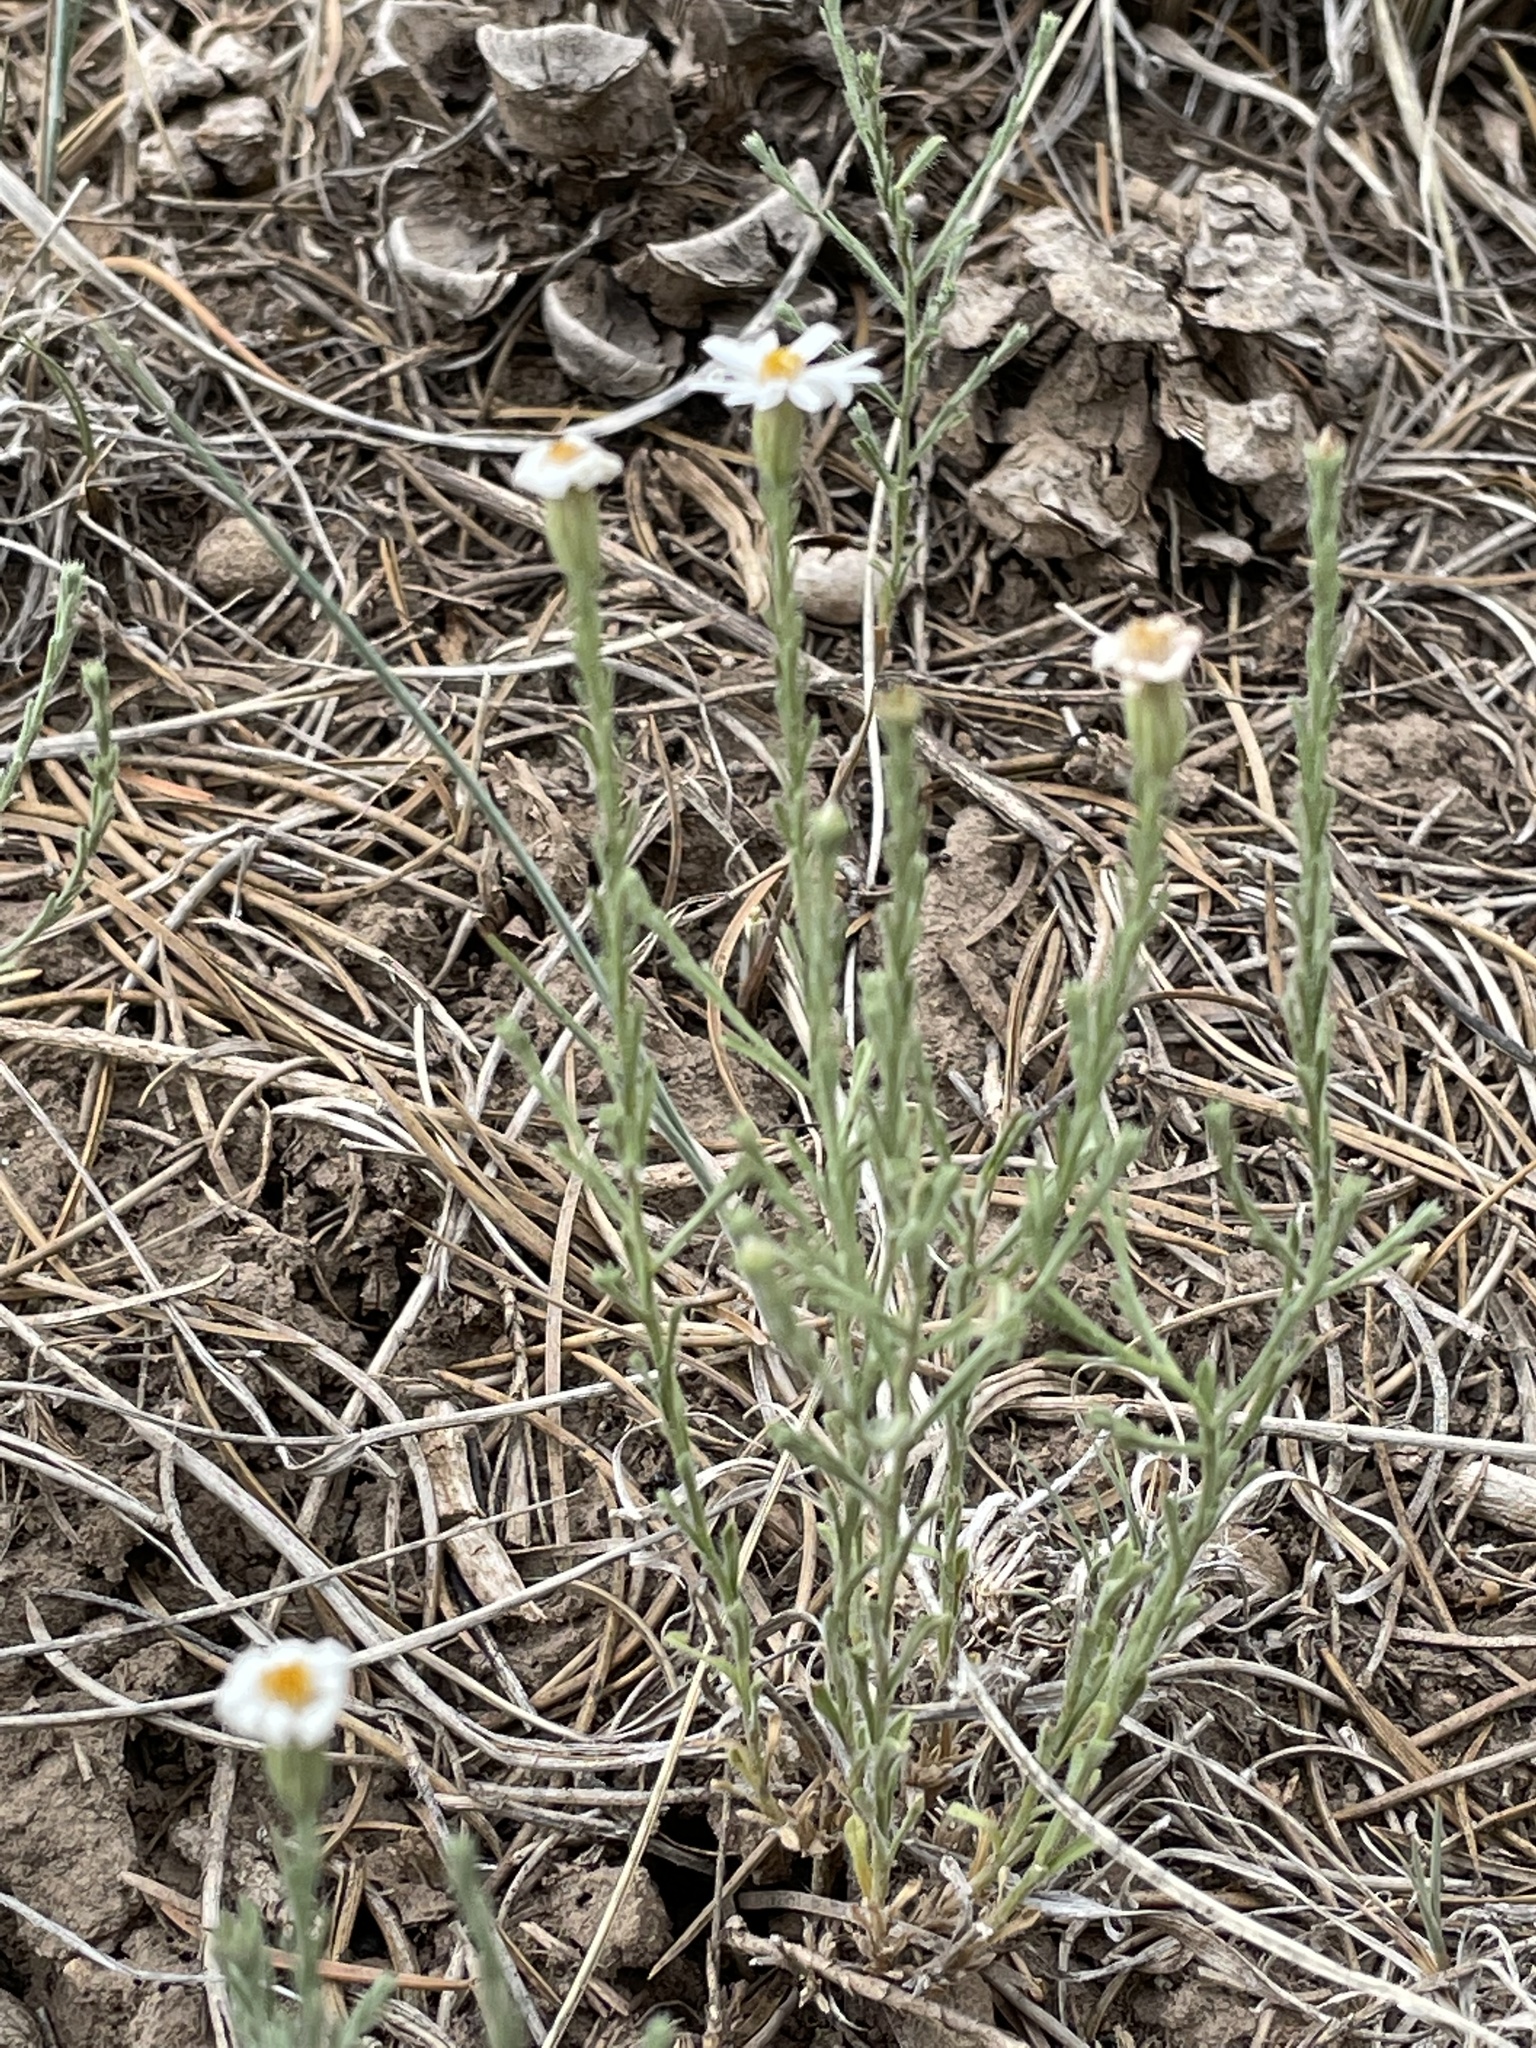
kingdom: Plantae
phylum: Tracheophyta
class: Magnoliopsida
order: Asterales
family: Asteraceae
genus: Chaetopappa
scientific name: Chaetopappa ericoides
